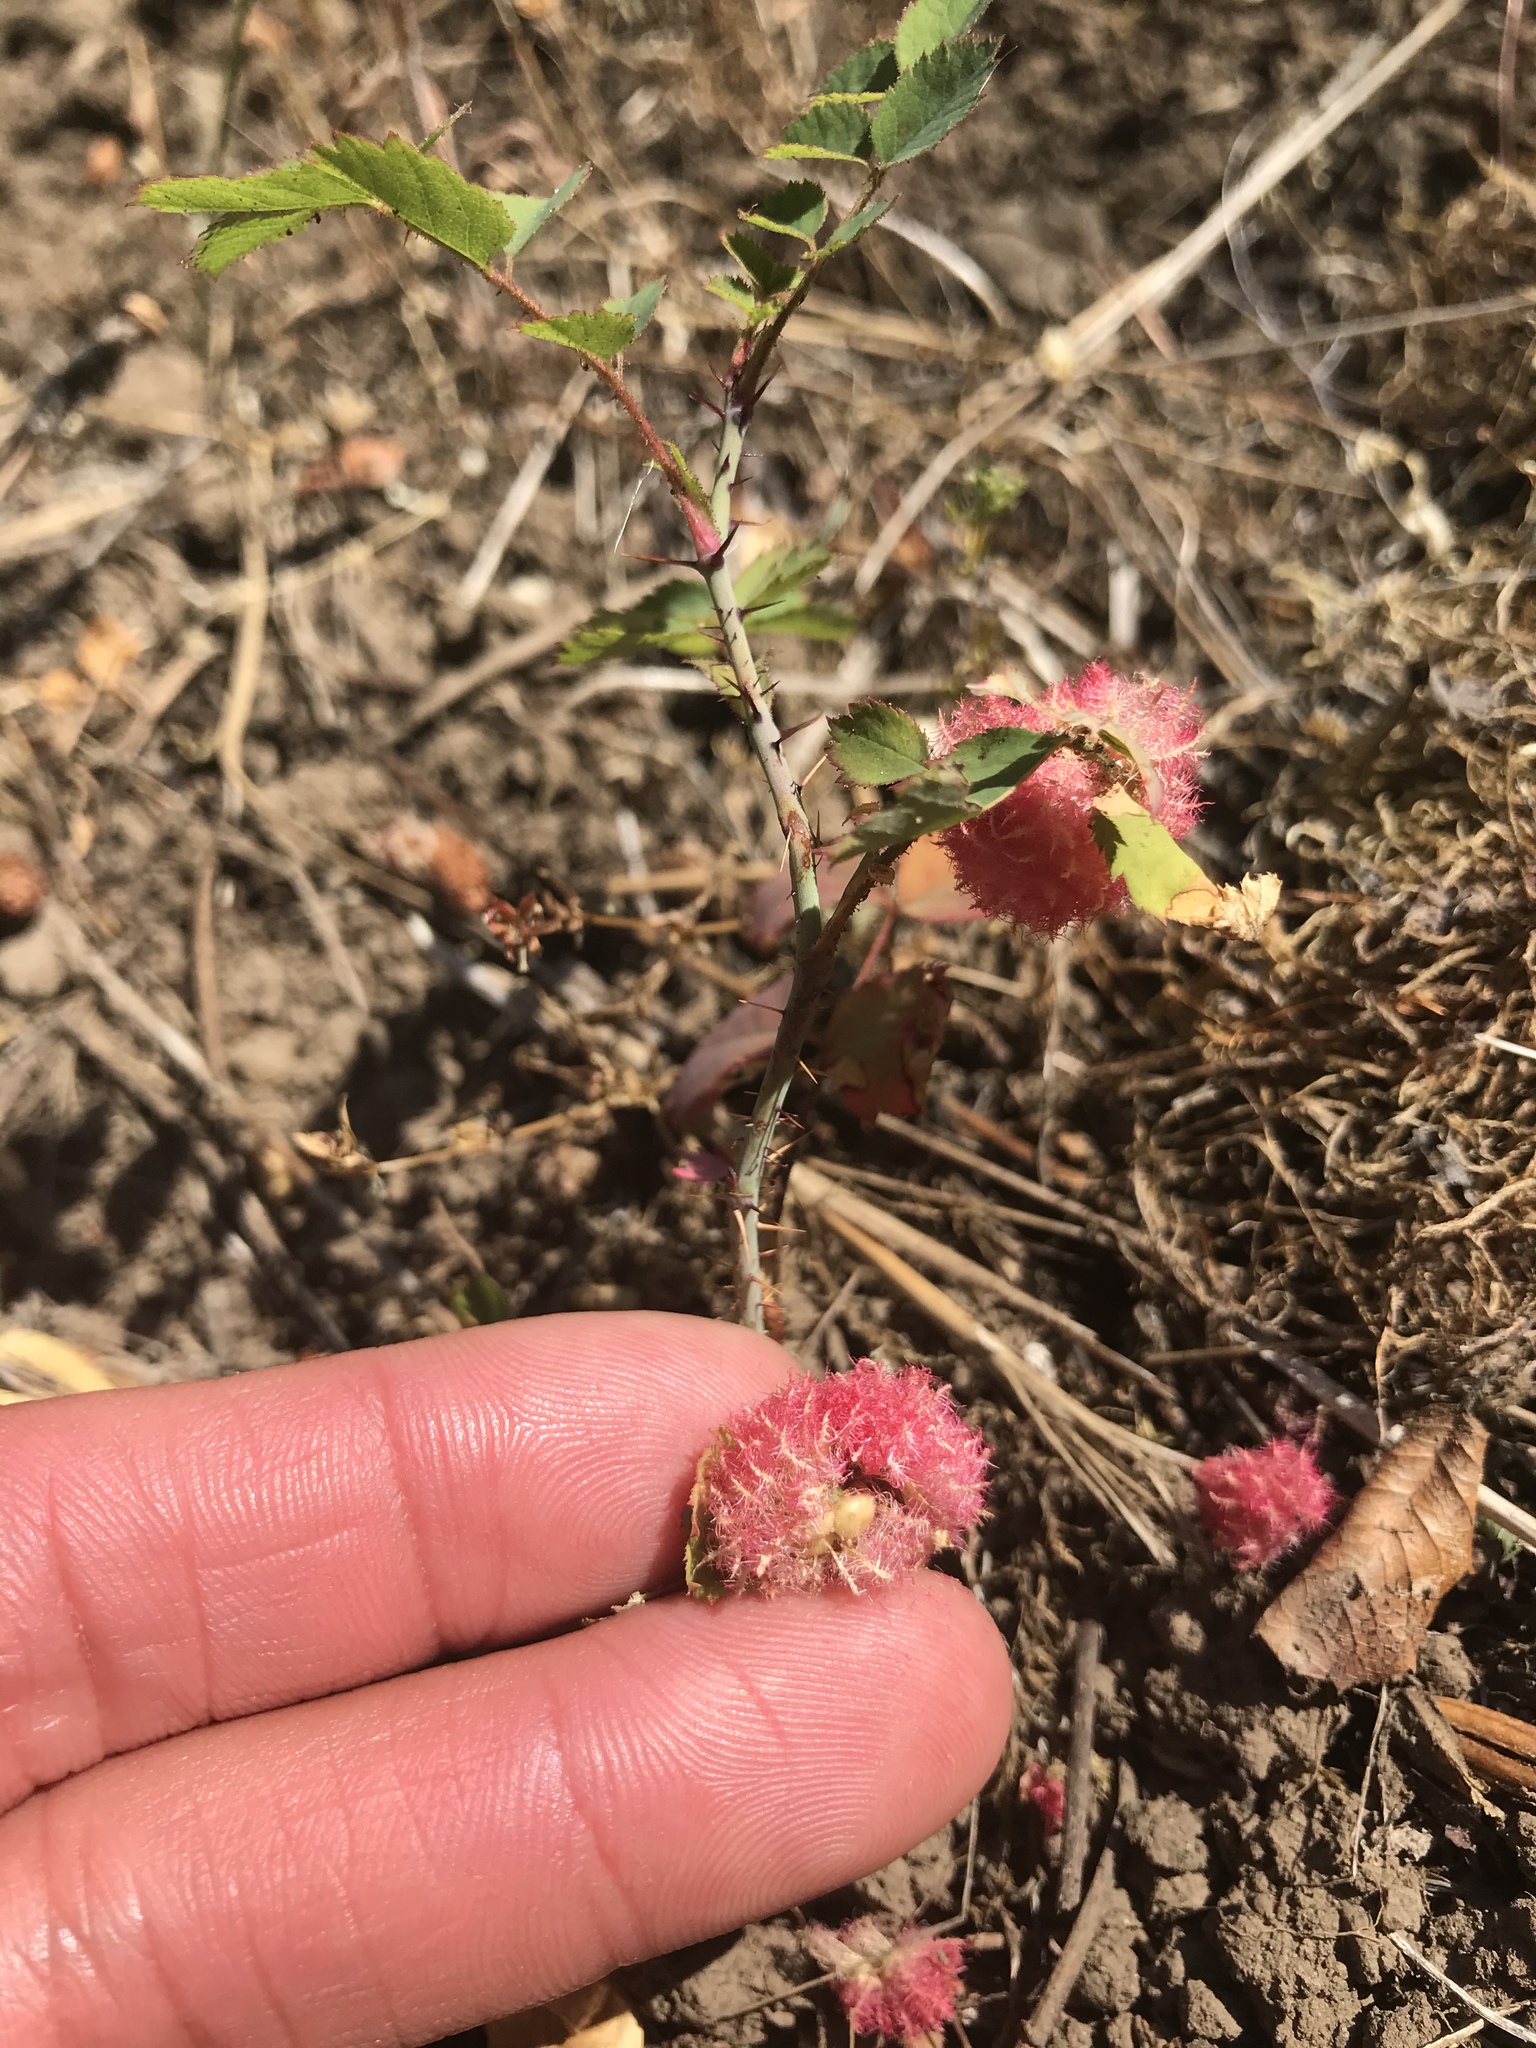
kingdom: Animalia
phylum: Arthropoda
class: Insecta
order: Hymenoptera
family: Cynipidae
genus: Diplolepis
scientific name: Diplolepis rosae
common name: Bedeguar gall
